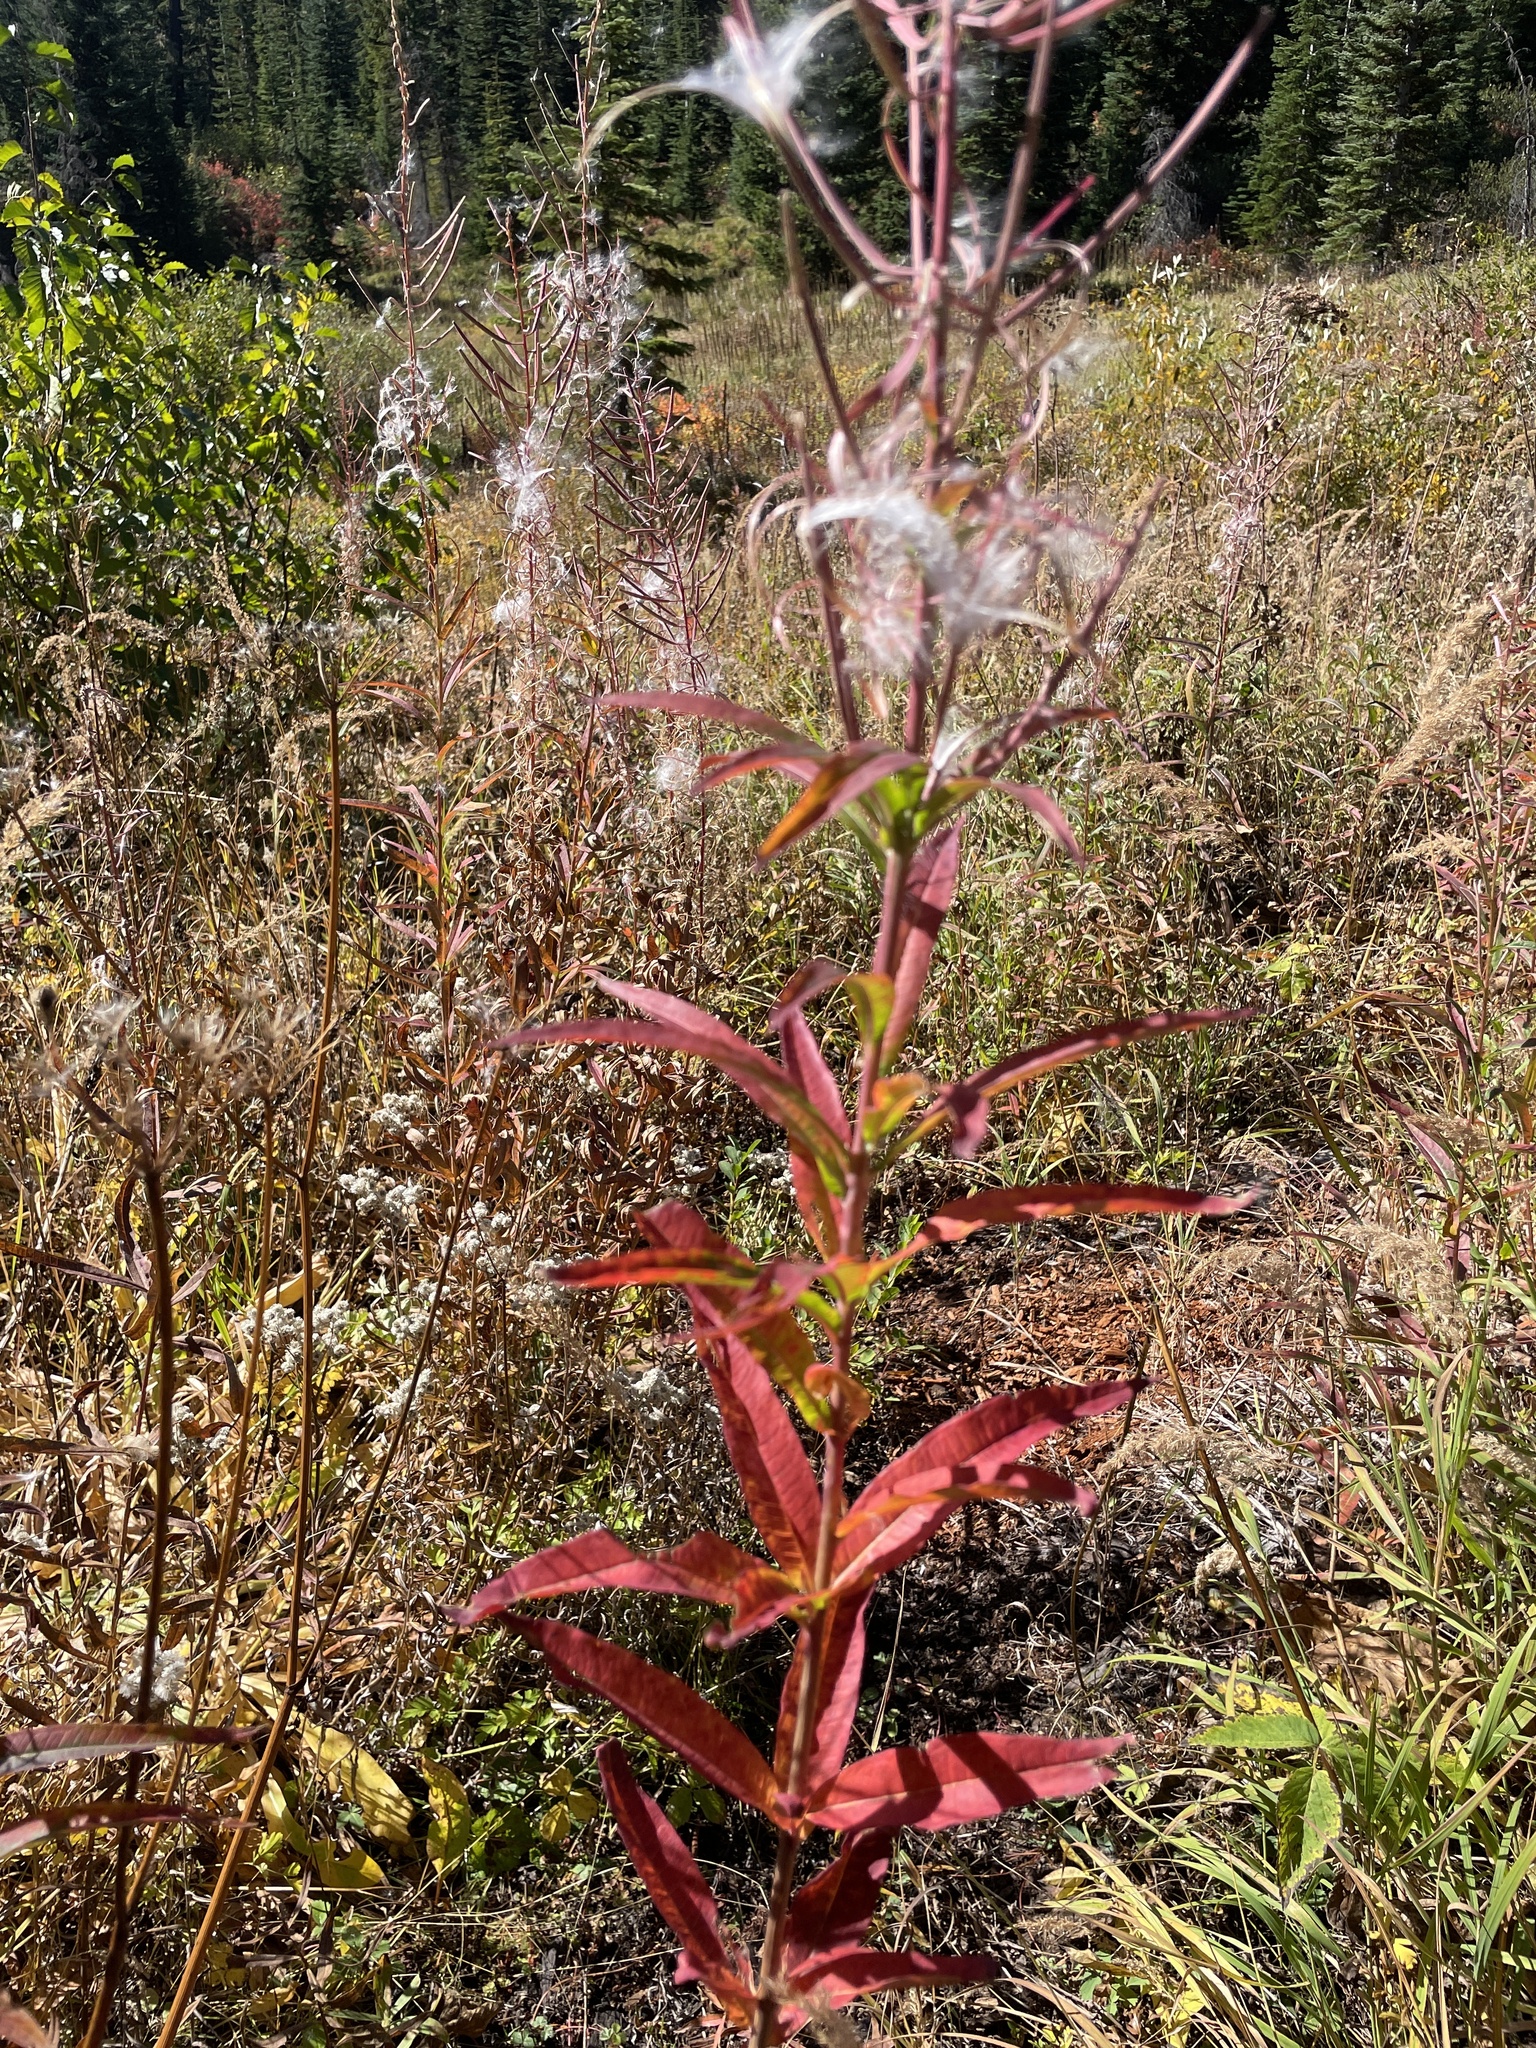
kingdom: Plantae
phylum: Tracheophyta
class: Magnoliopsida
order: Myrtales
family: Onagraceae
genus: Chamaenerion
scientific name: Chamaenerion angustifolium
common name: Fireweed
